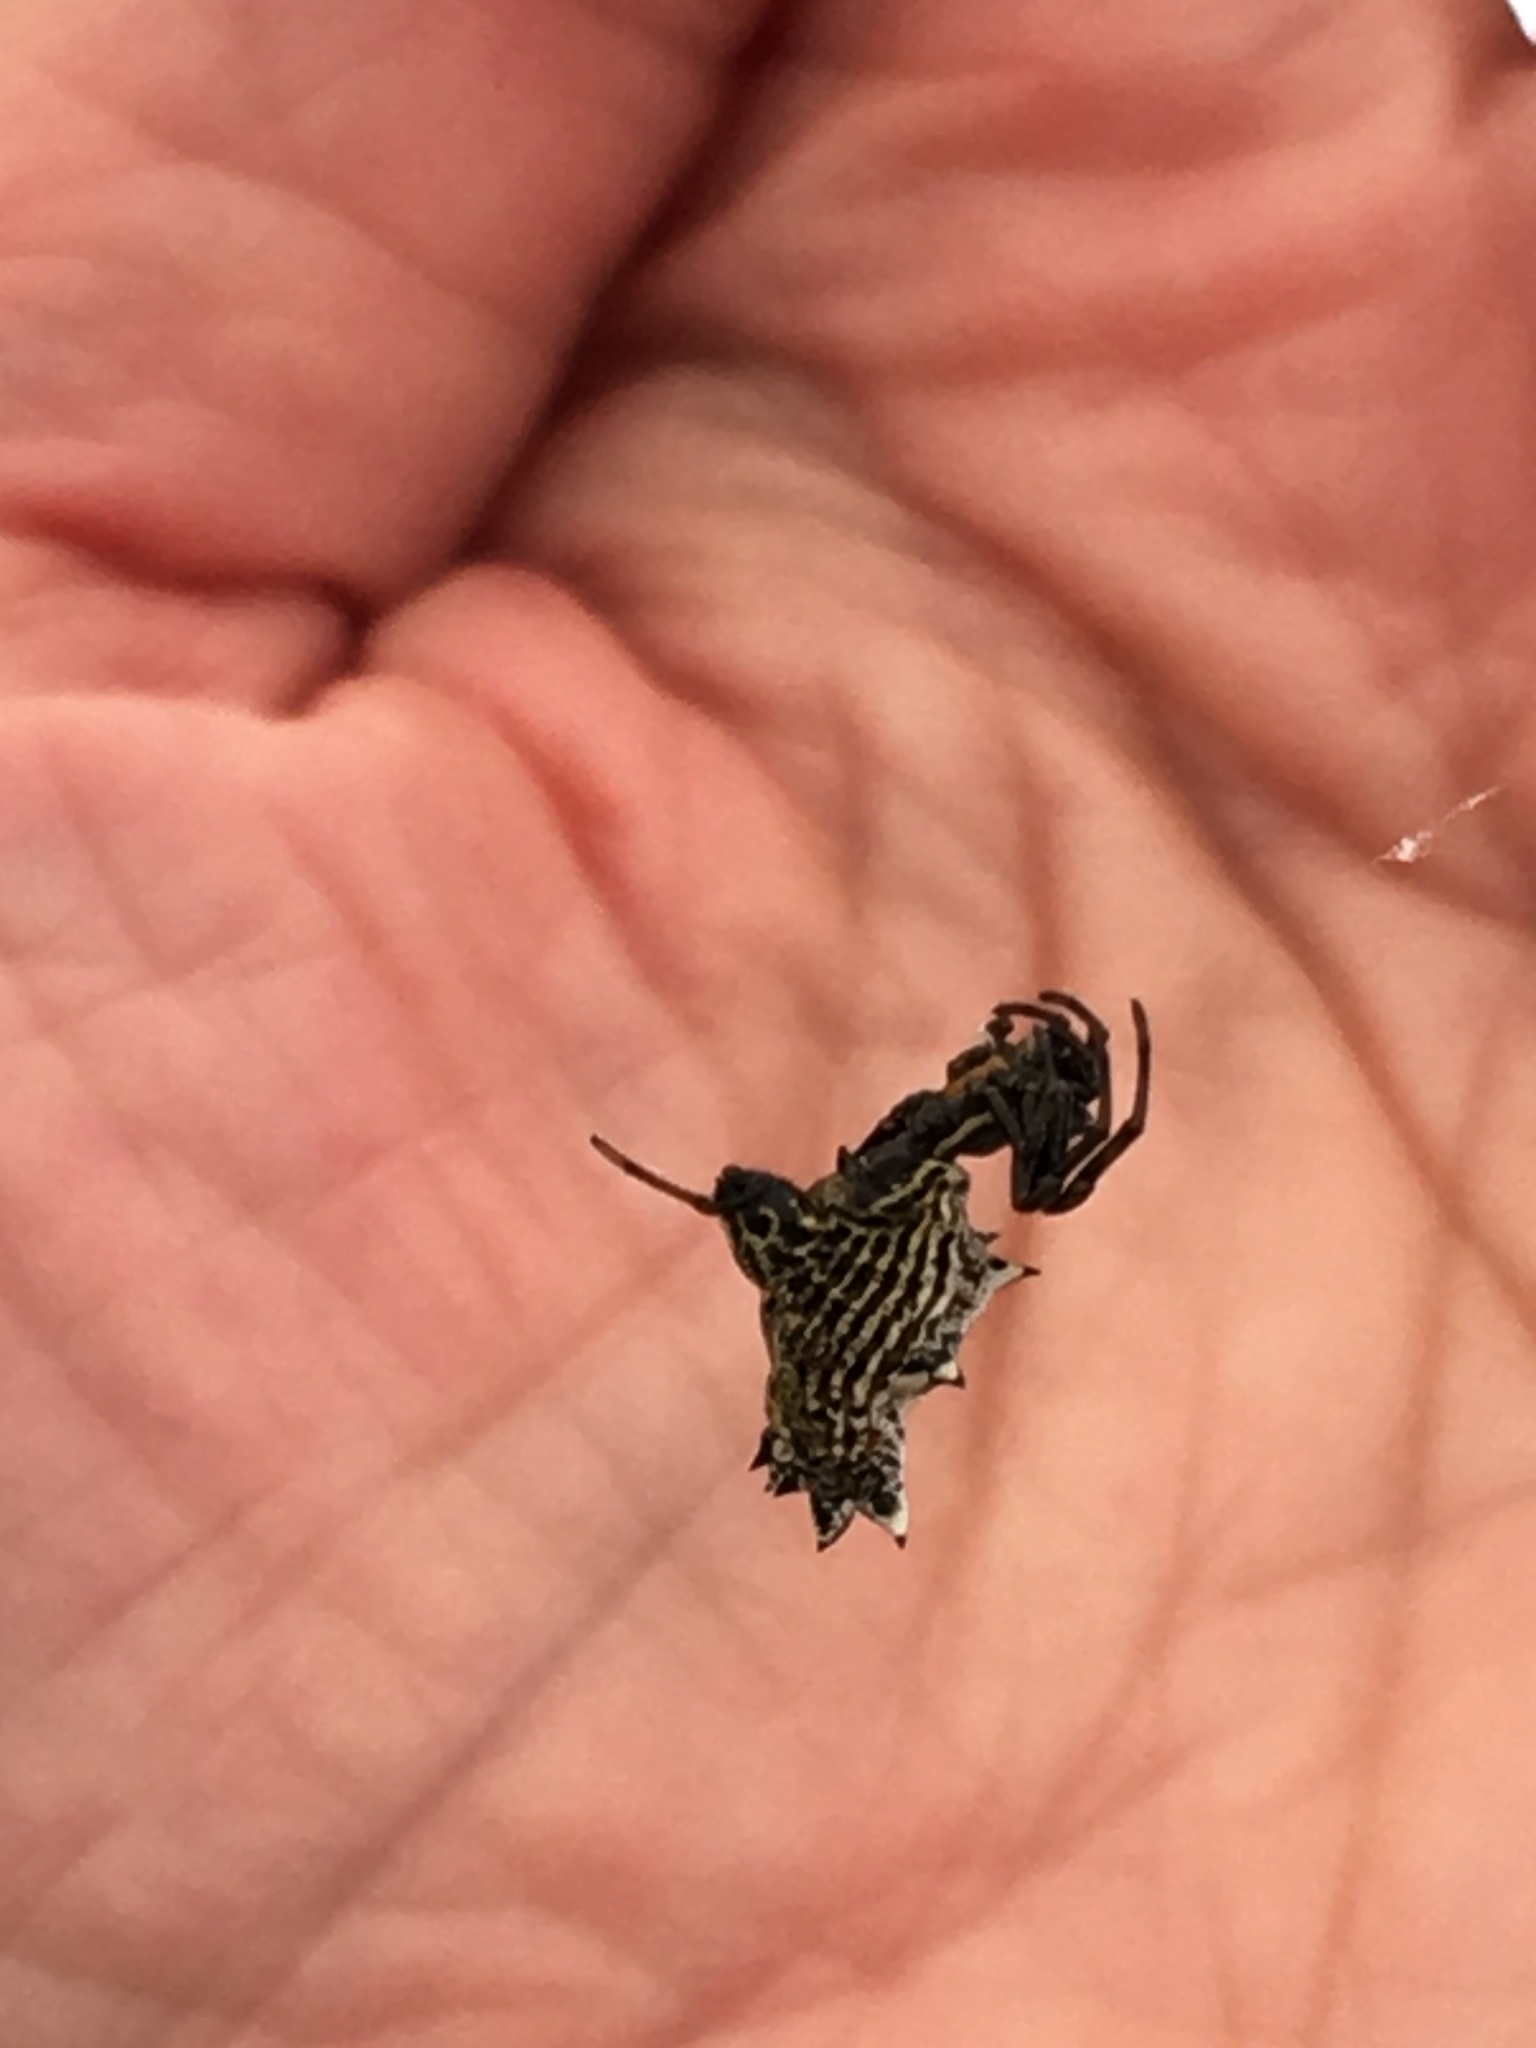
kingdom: Animalia
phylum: Arthropoda
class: Arachnida
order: Araneae
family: Araneidae
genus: Micrathena
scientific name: Micrathena gracilis
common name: Orb weavers
